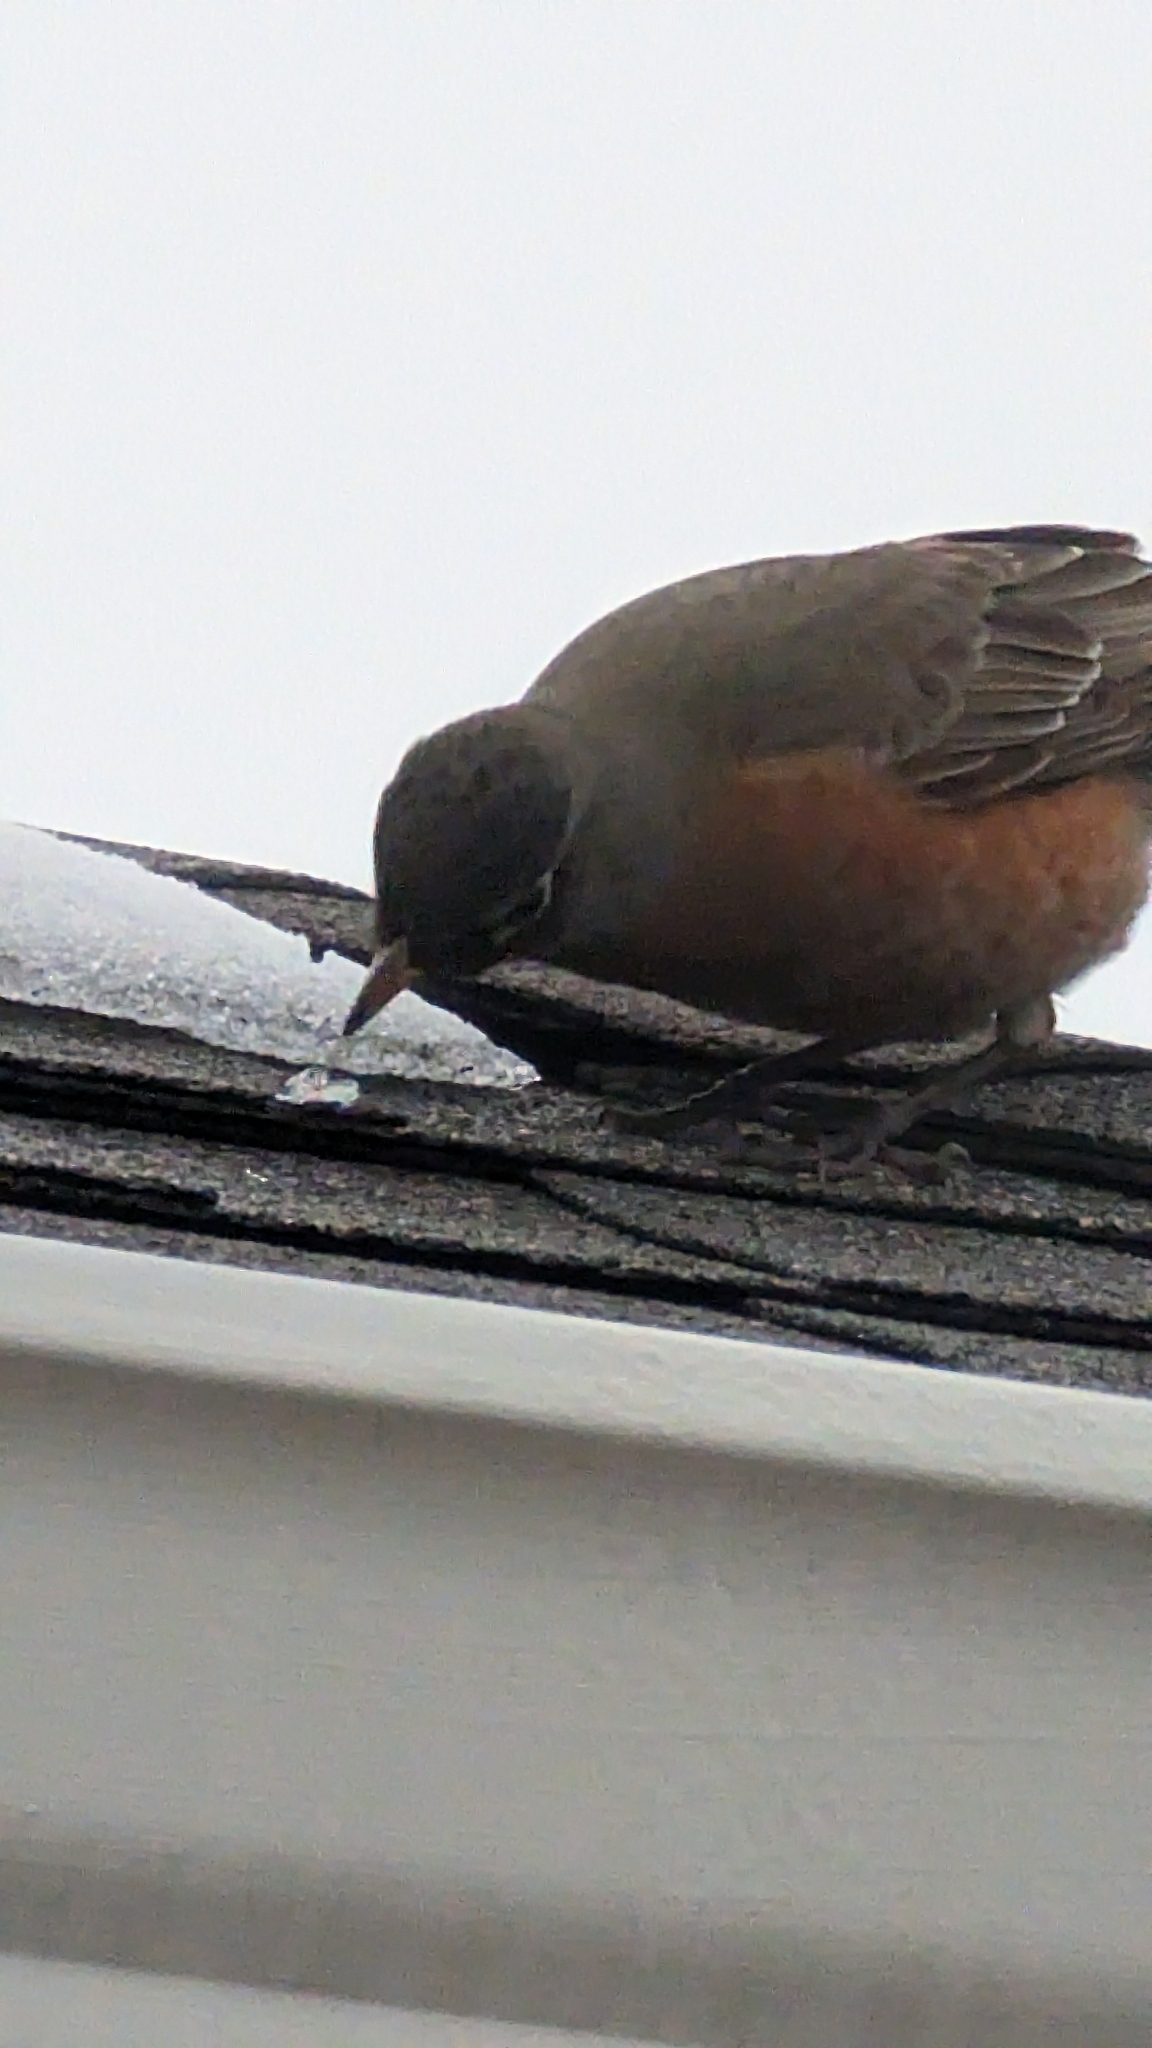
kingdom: Animalia
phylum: Chordata
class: Aves
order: Passeriformes
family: Turdidae
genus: Turdus
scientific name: Turdus migratorius
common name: American robin
